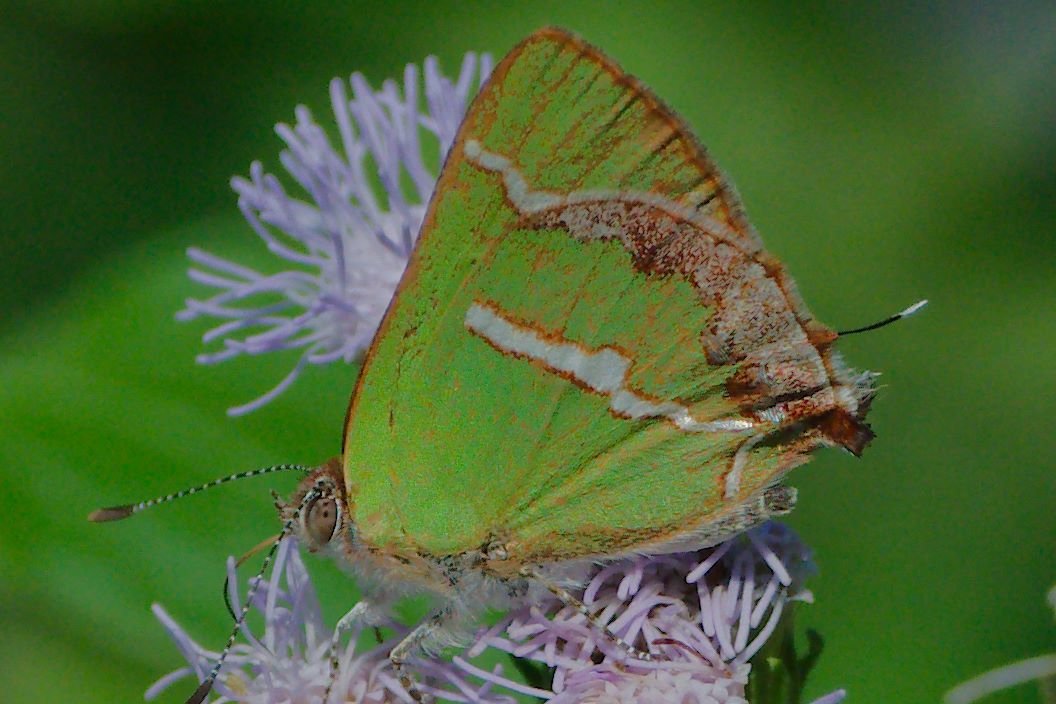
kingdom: Animalia
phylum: Arthropoda
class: Insecta
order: Lepidoptera
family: Lycaenidae
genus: Chlorostrymon
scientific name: Chlorostrymon simaethis
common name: Silver-banded hairstreak
